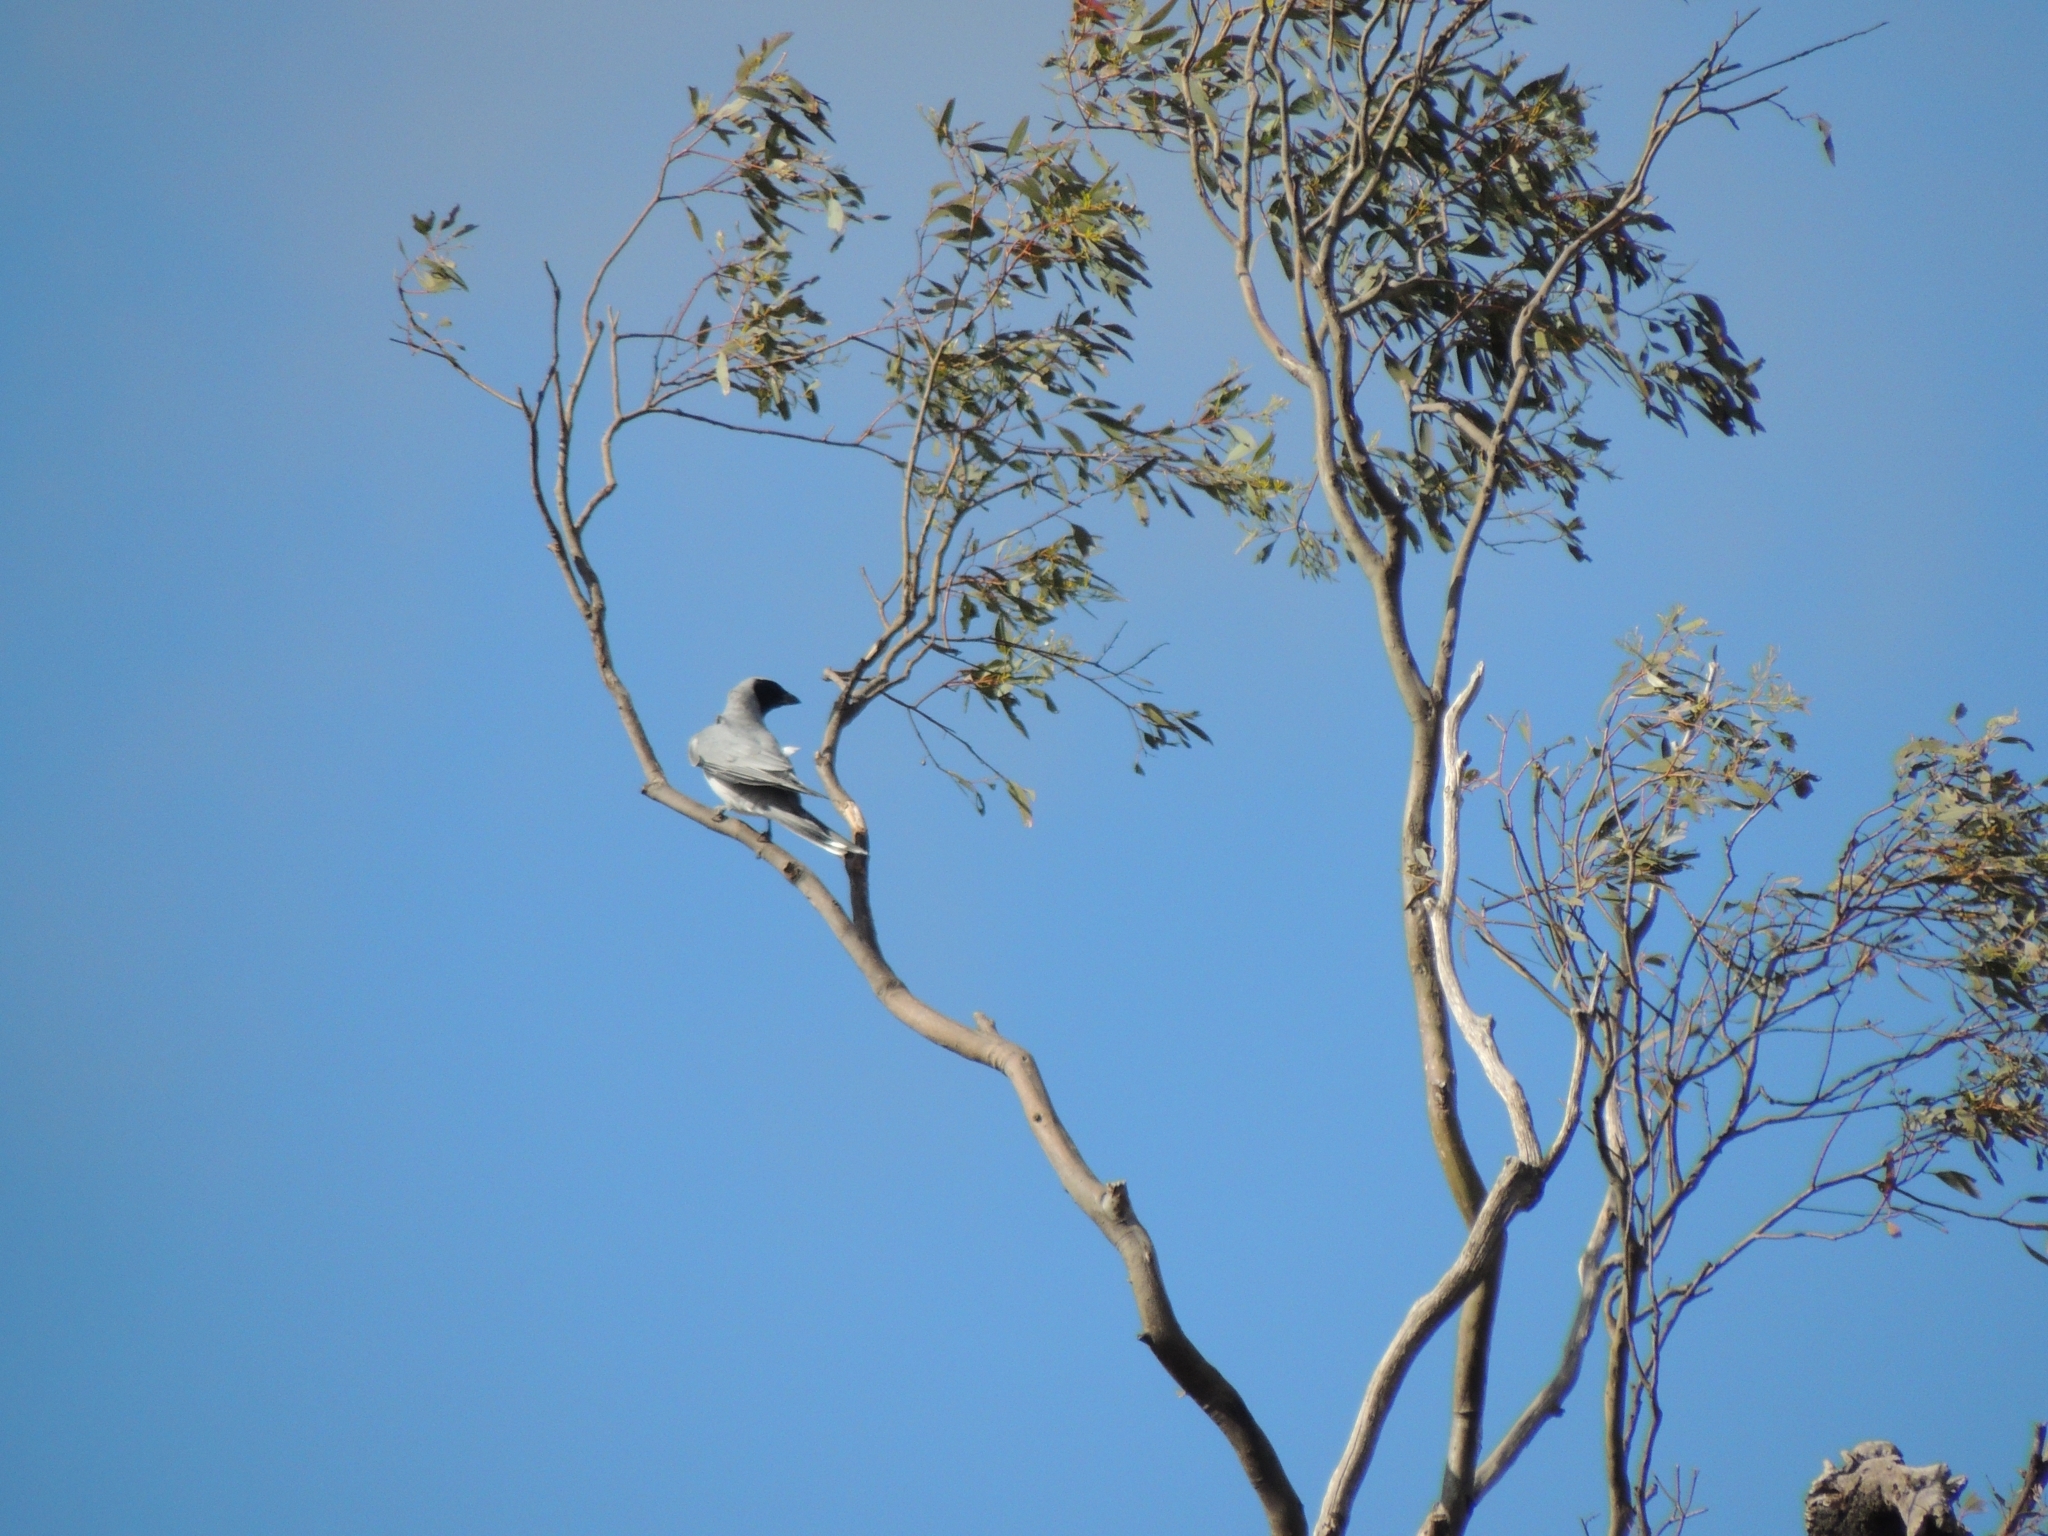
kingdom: Animalia
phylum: Chordata
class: Aves
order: Passeriformes
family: Campephagidae
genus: Coracina
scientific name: Coracina novaehollandiae
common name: Black-faced cuckooshrike
